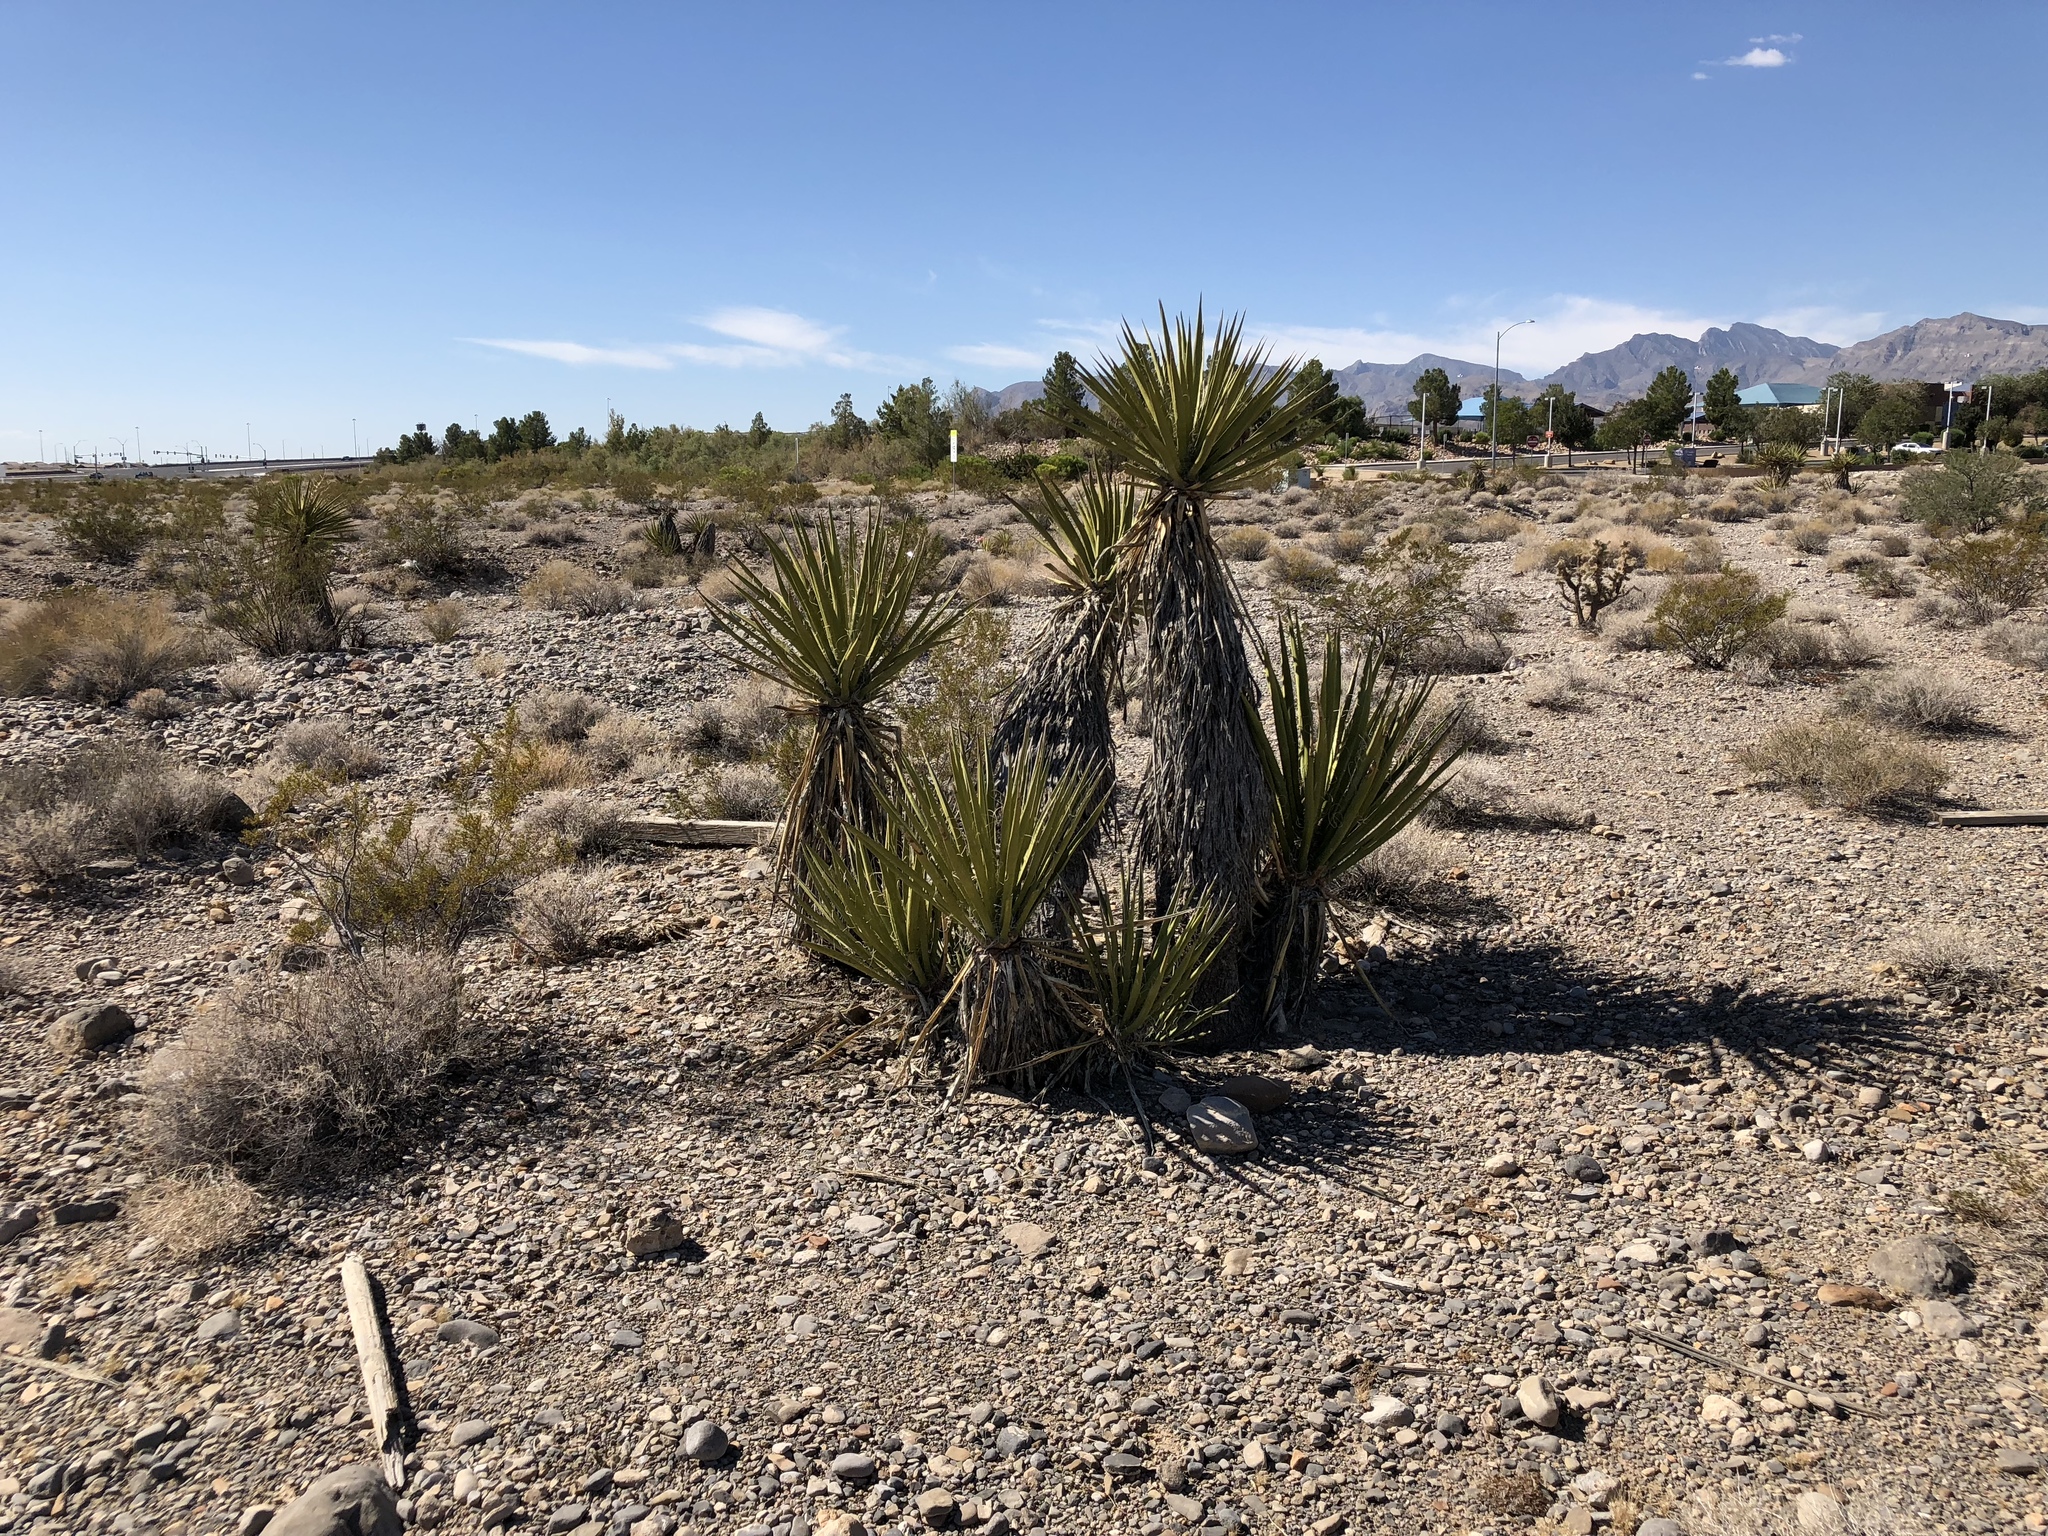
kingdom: Plantae
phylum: Tracheophyta
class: Liliopsida
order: Asparagales
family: Asparagaceae
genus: Yucca
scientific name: Yucca schidigera
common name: Mojave yucca
